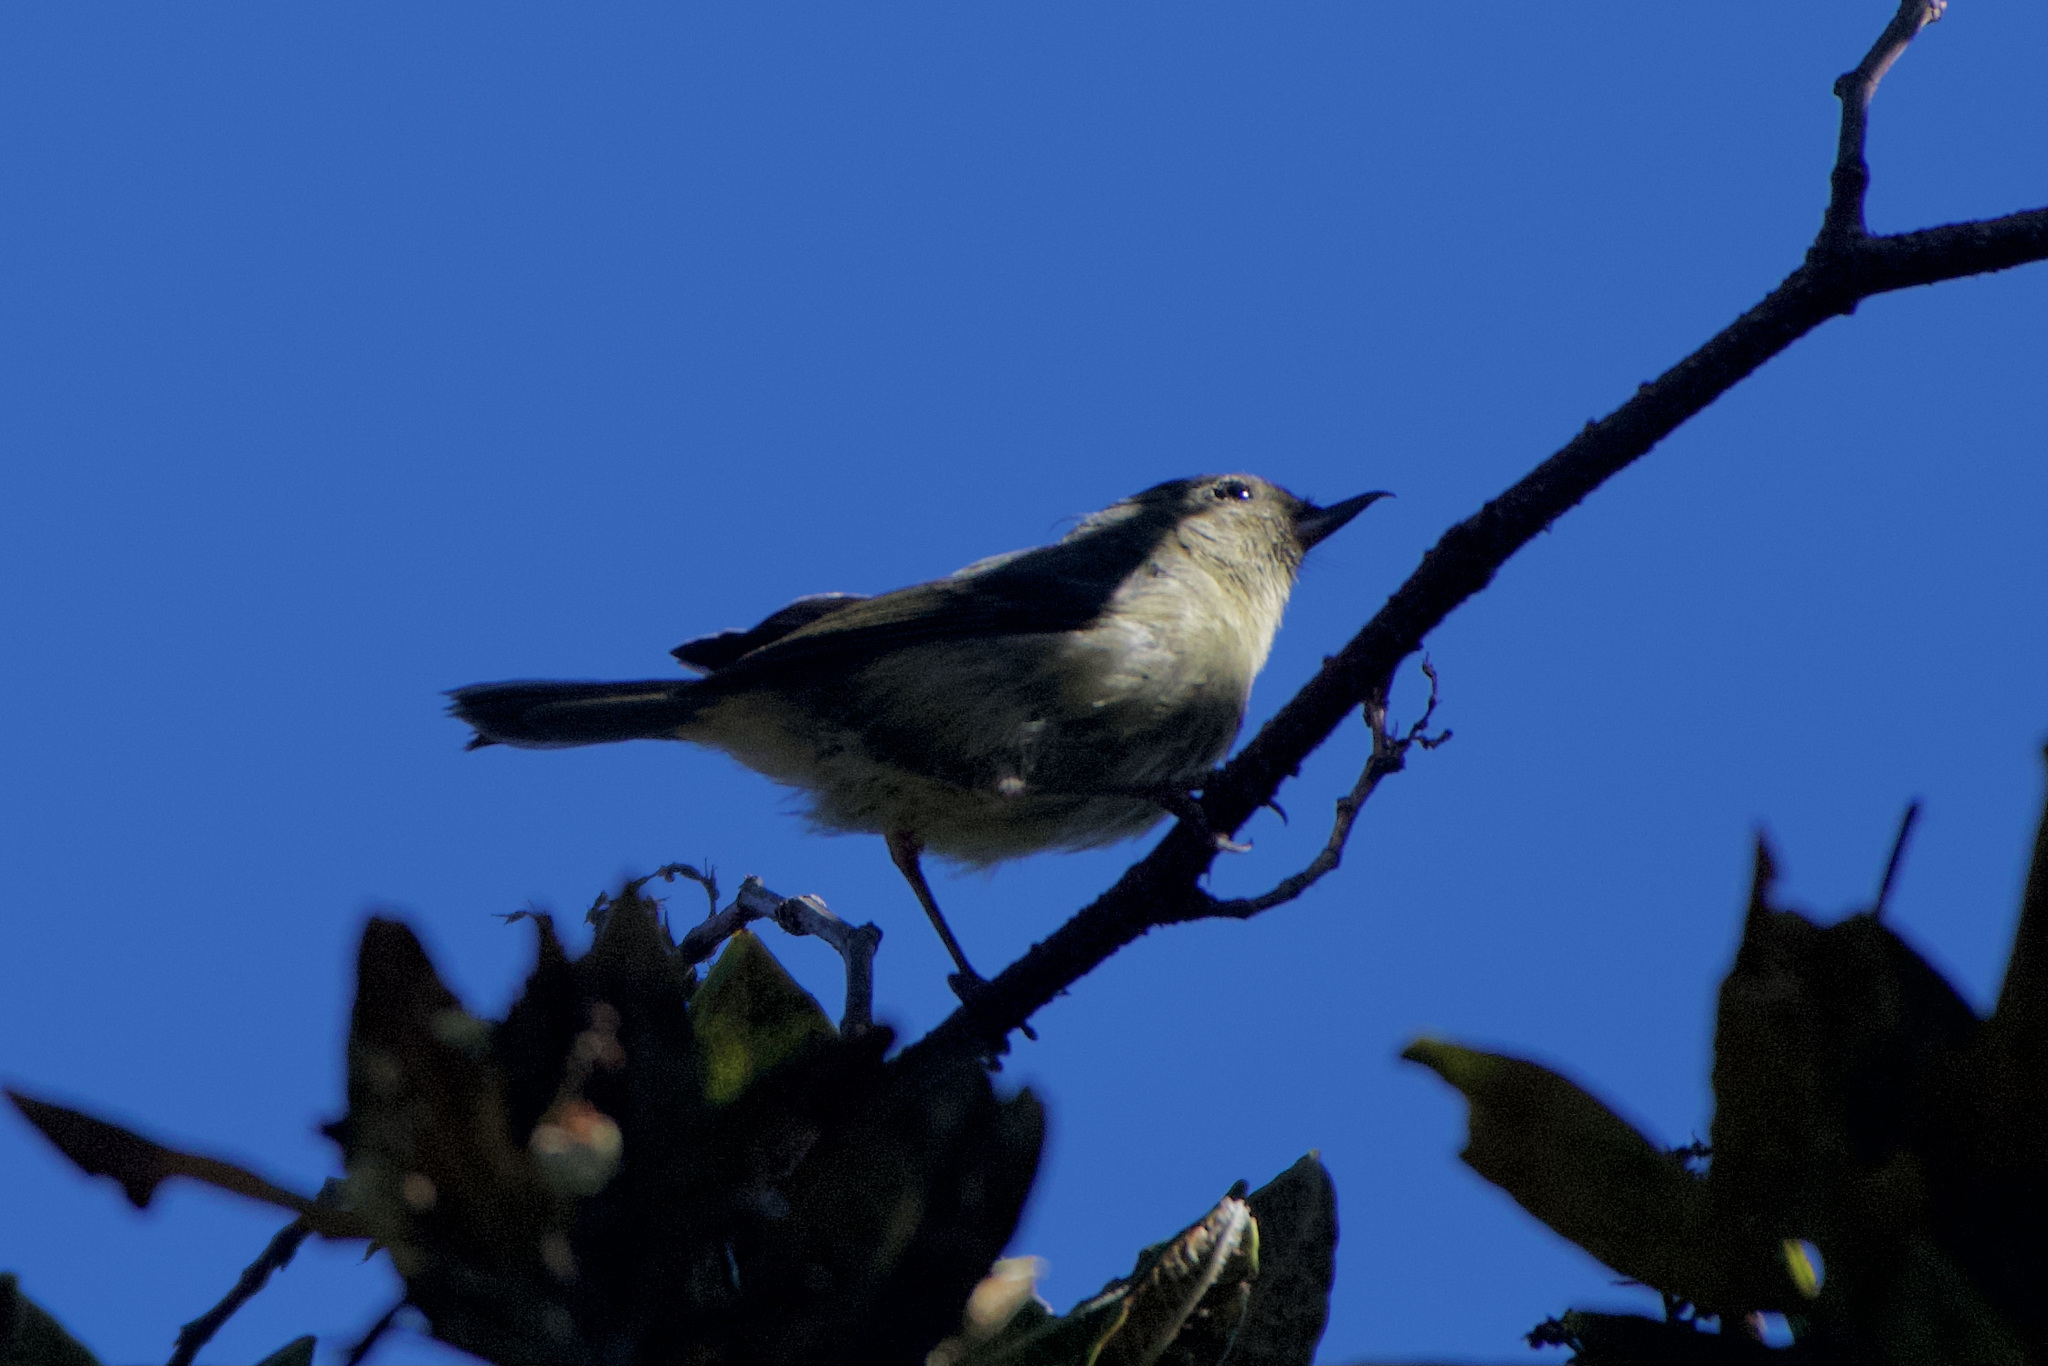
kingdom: Animalia
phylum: Chordata
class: Aves
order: Passeriformes
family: Thraupidae
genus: Diglossa
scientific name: Diglossa plumbea
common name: Slaty flowerpiercer
